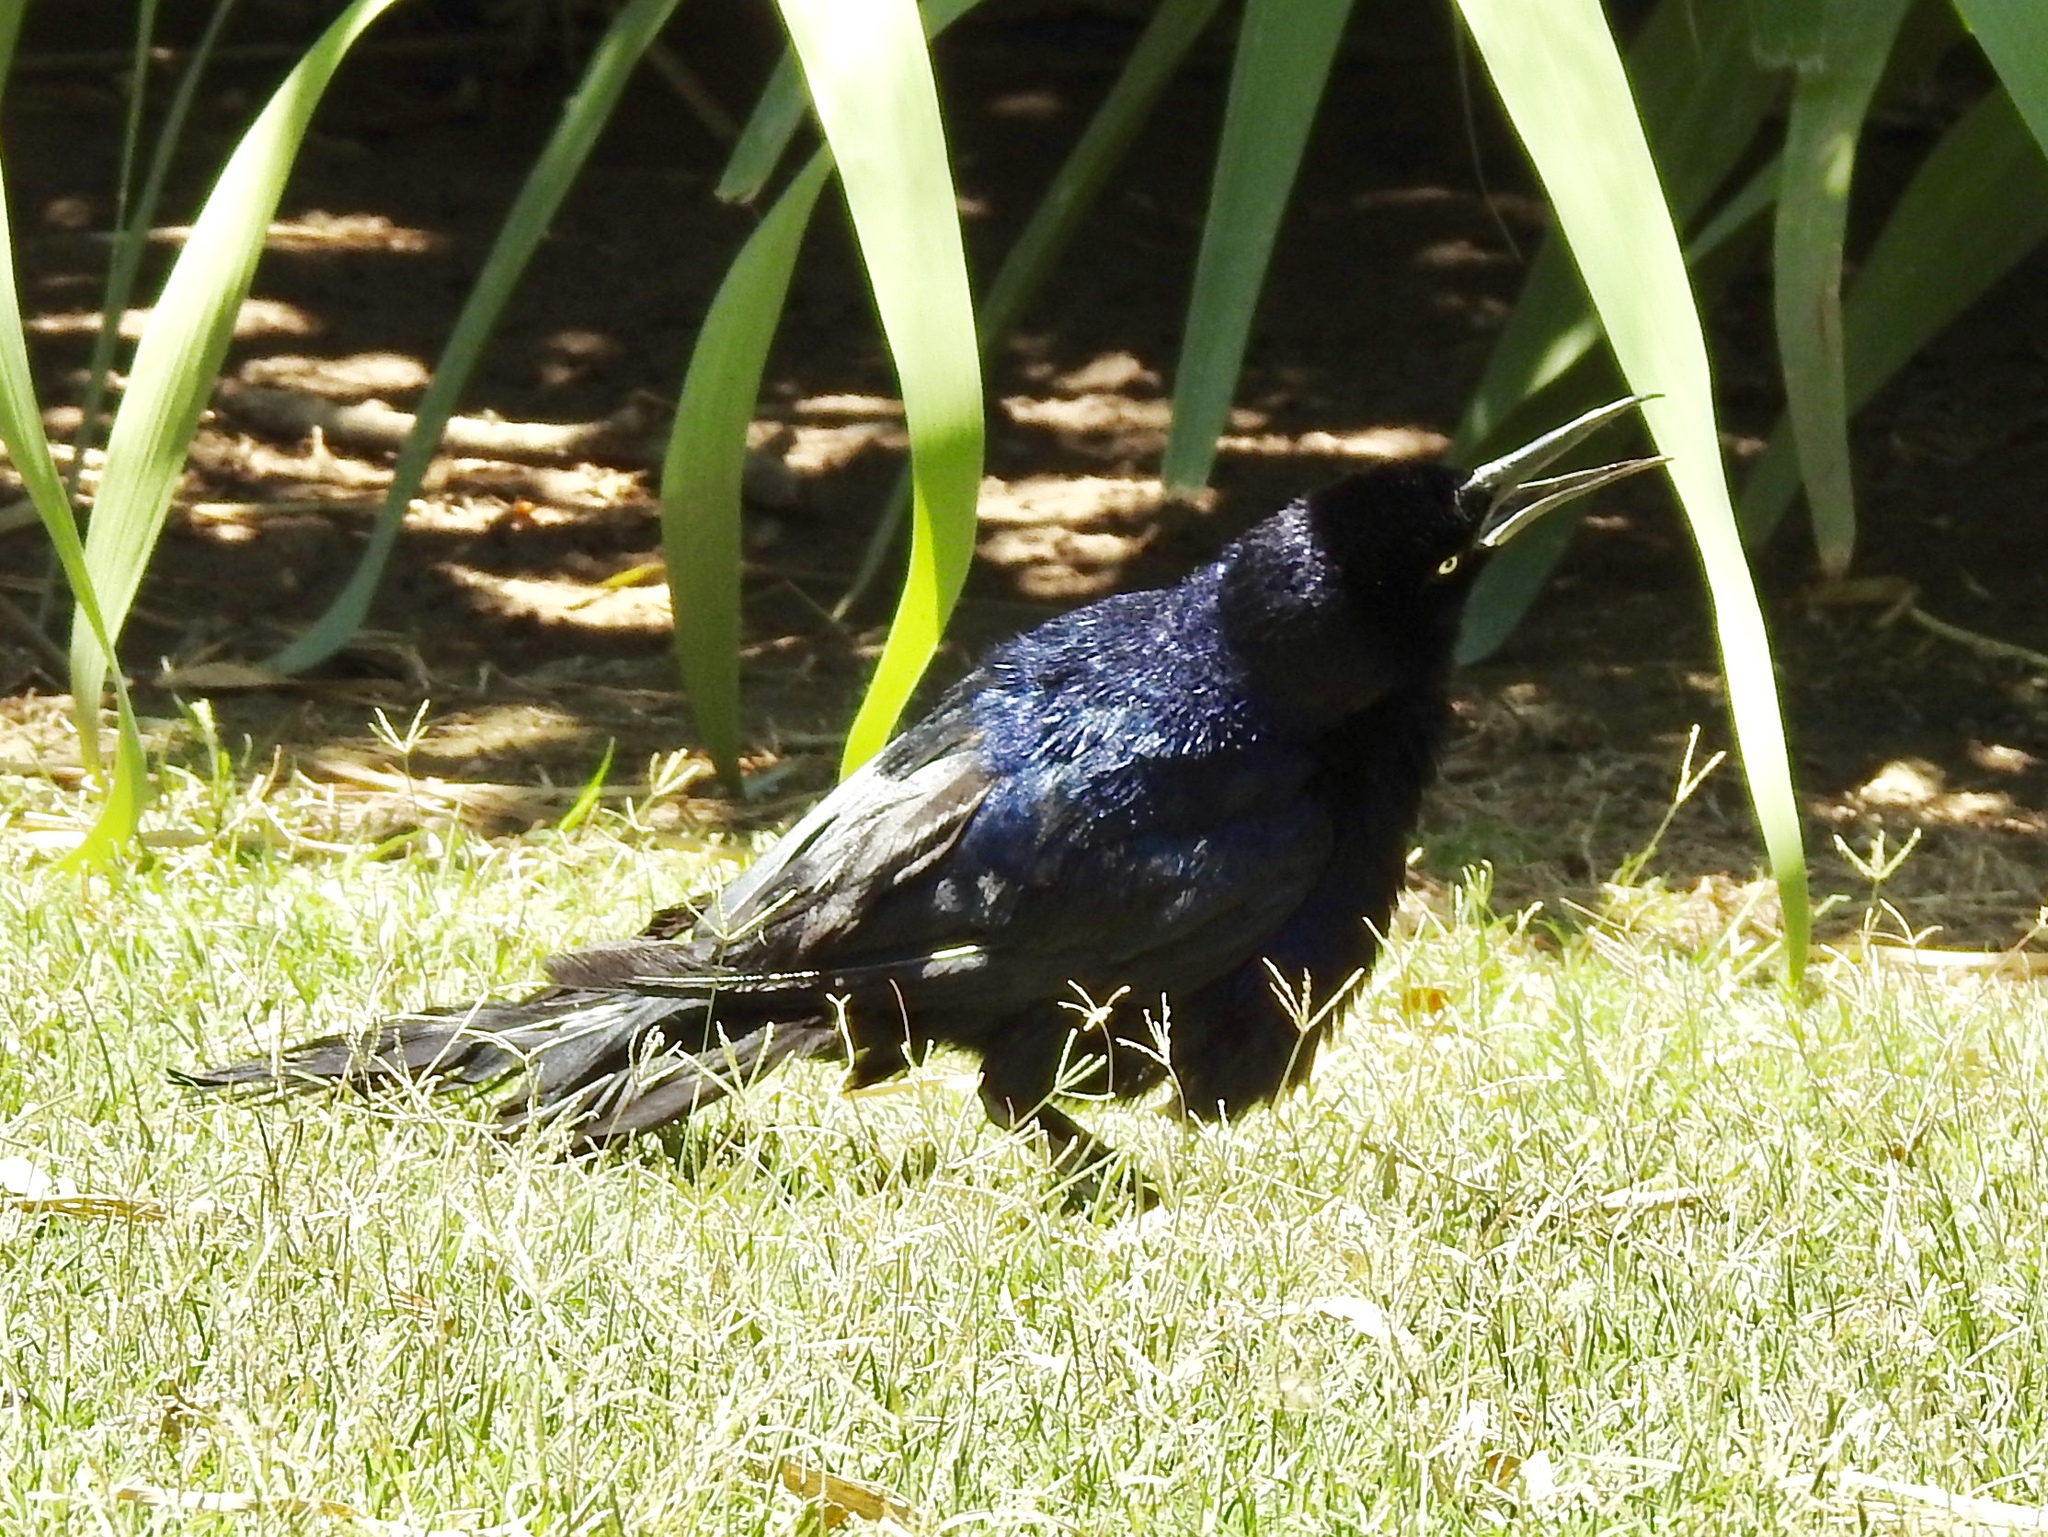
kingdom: Animalia
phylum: Chordata
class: Aves
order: Passeriformes
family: Icteridae
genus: Quiscalus
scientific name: Quiscalus mexicanus
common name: Great-tailed grackle
